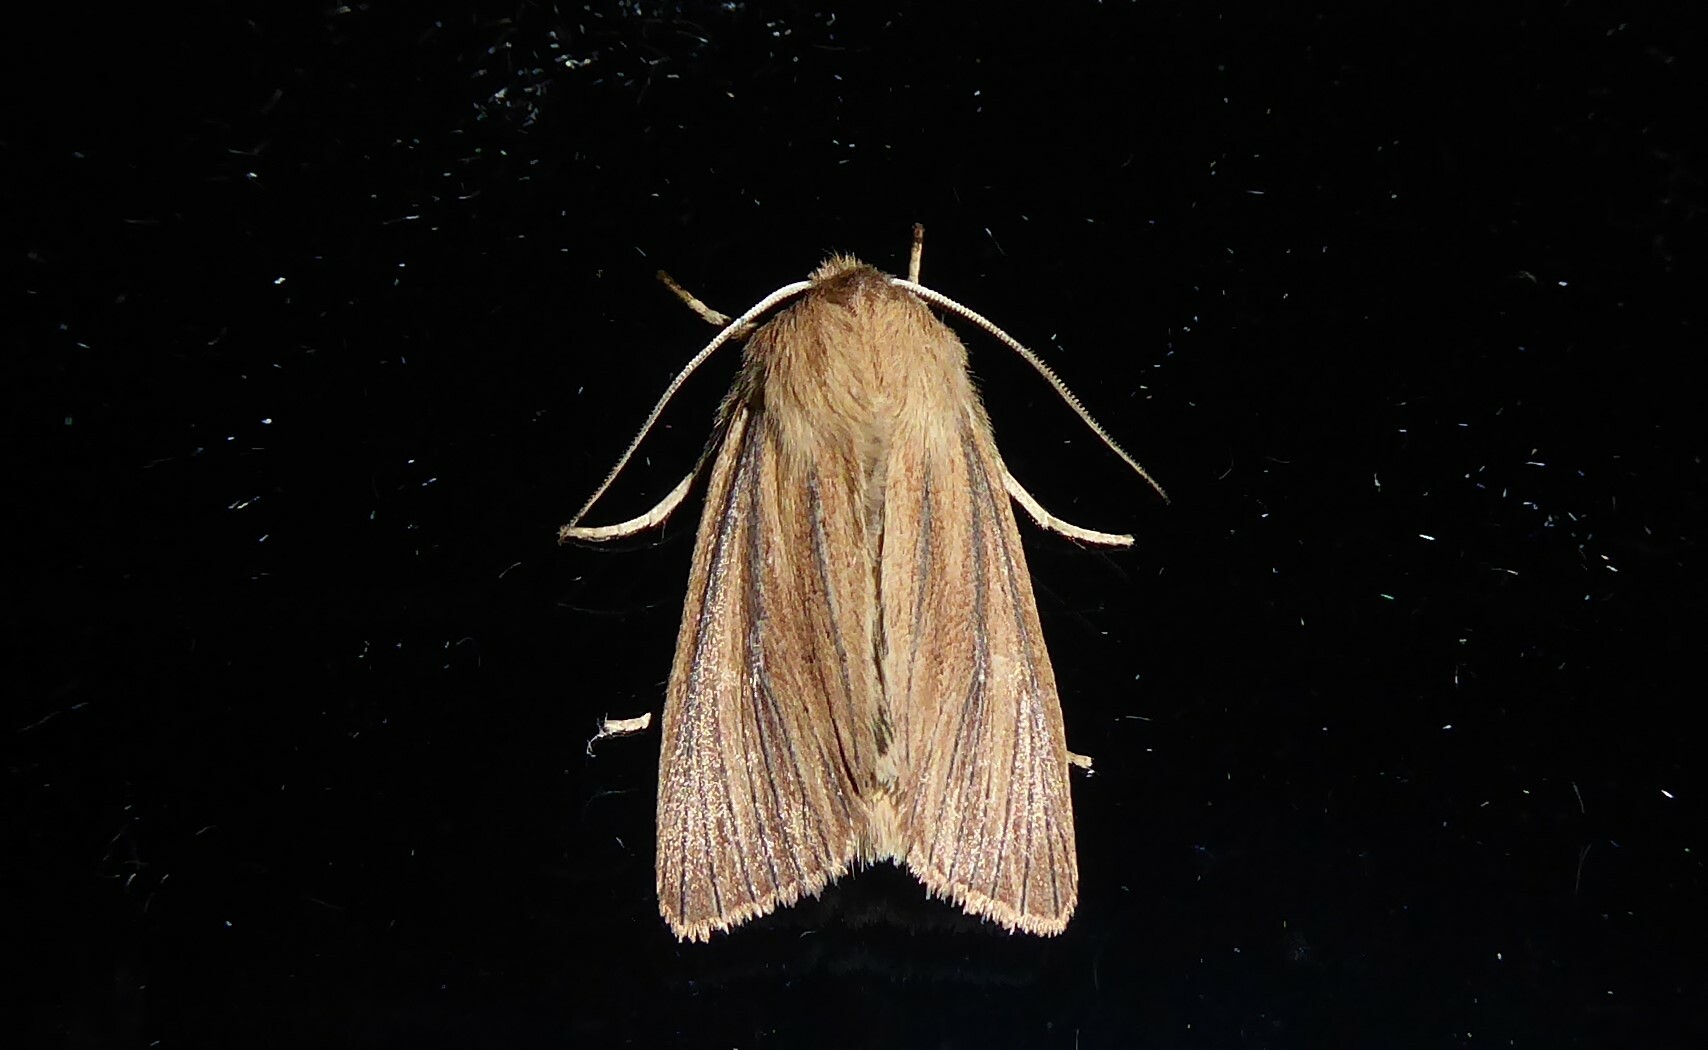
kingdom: Animalia
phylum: Arthropoda
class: Insecta
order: Lepidoptera
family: Noctuidae
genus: Ichneutica
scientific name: Ichneutica arotis
